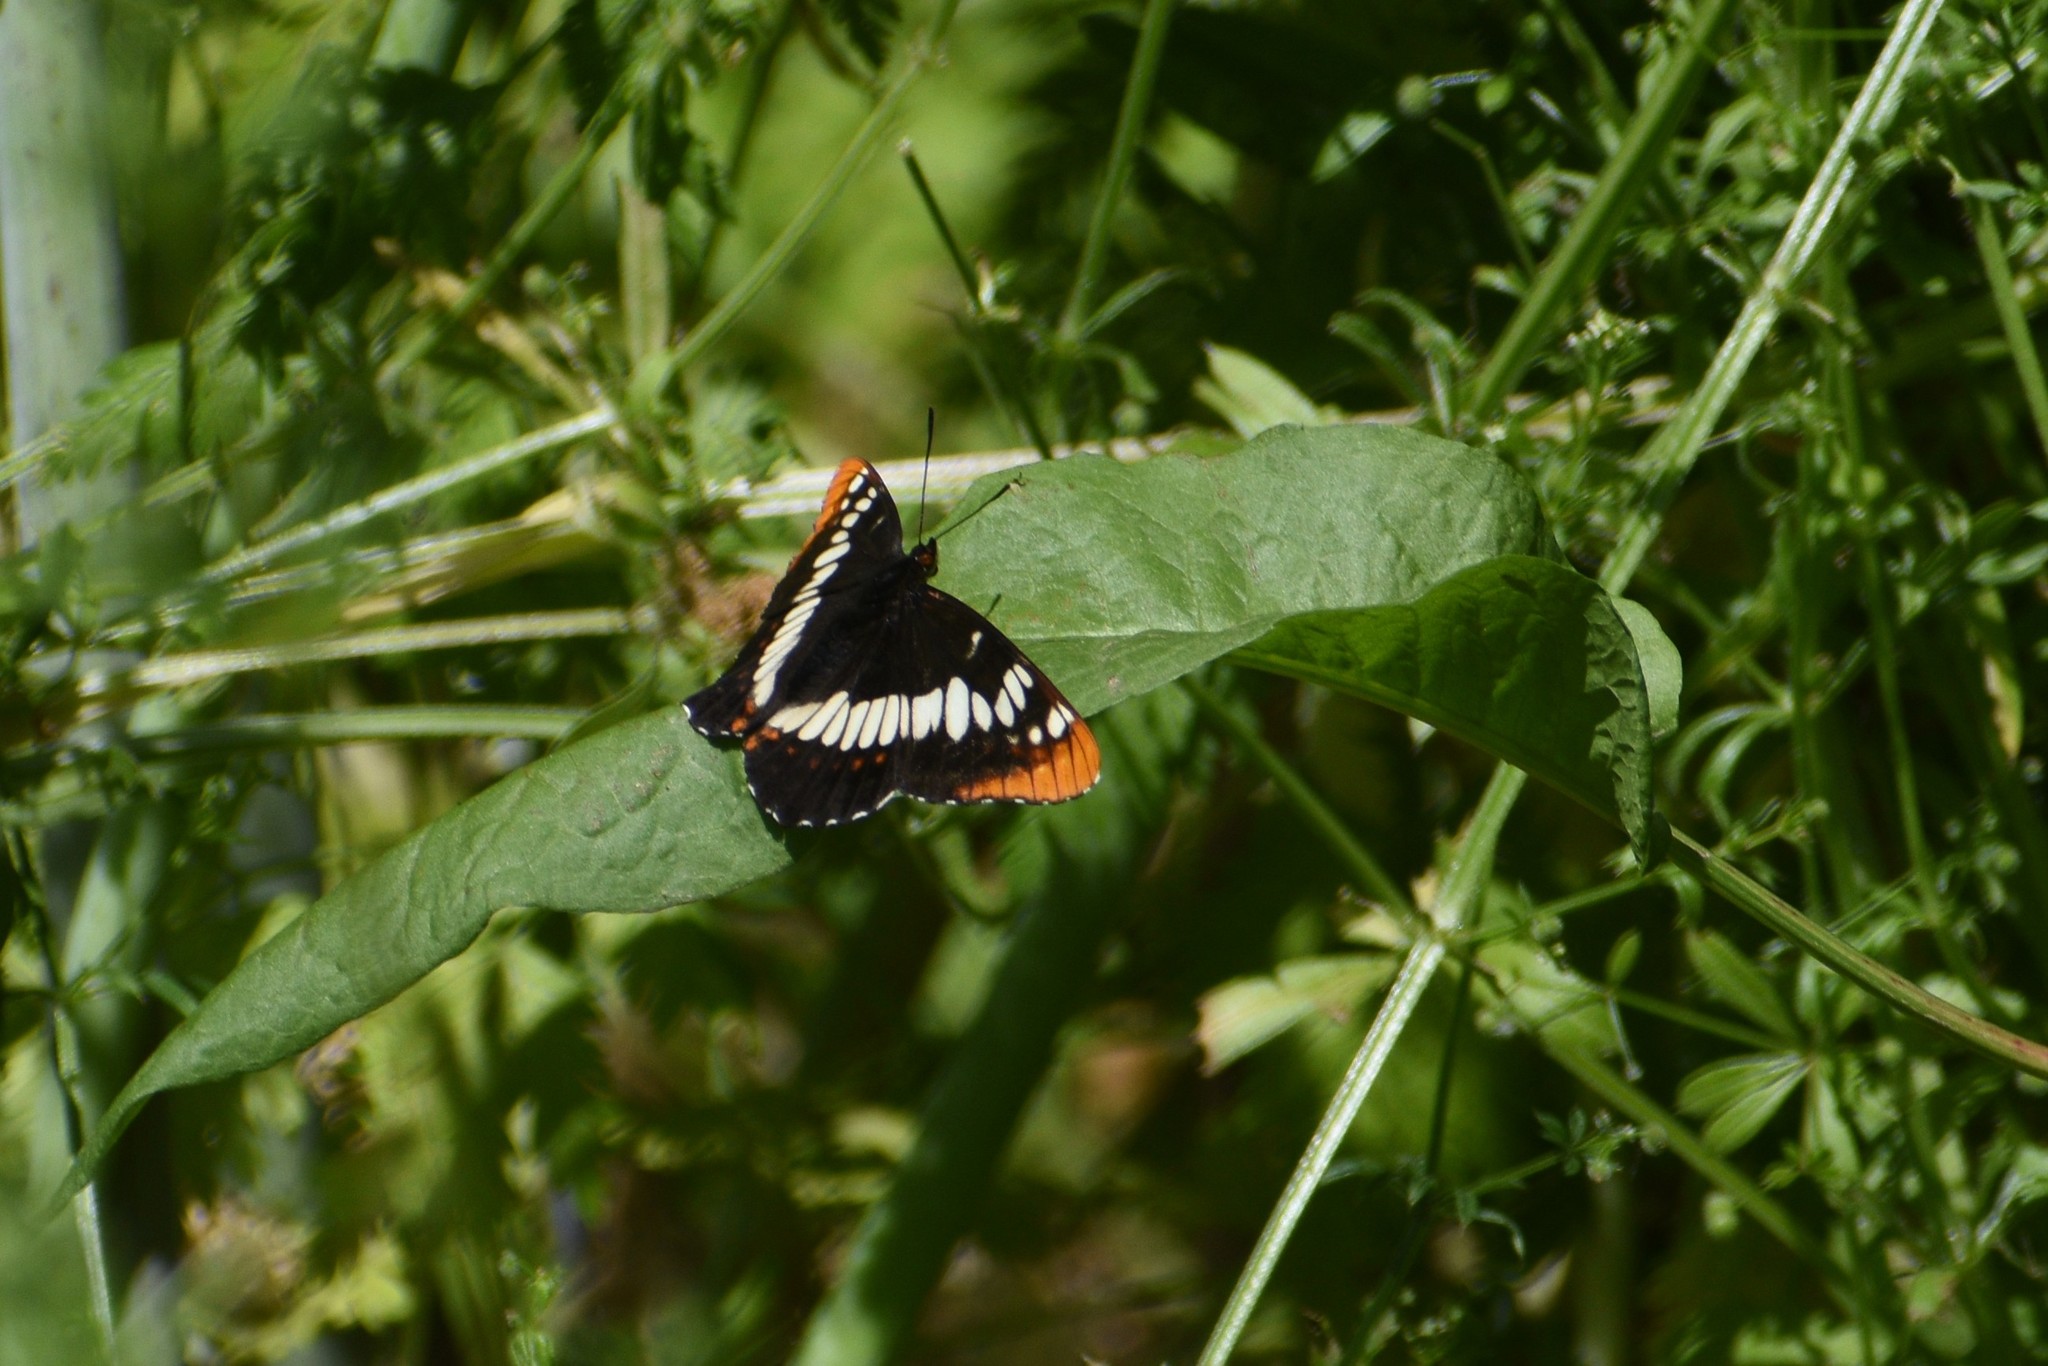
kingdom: Animalia
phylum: Arthropoda
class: Insecta
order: Lepidoptera
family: Nymphalidae
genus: Limenitis
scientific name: Limenitis lorquini
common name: Lorquin's admiral
